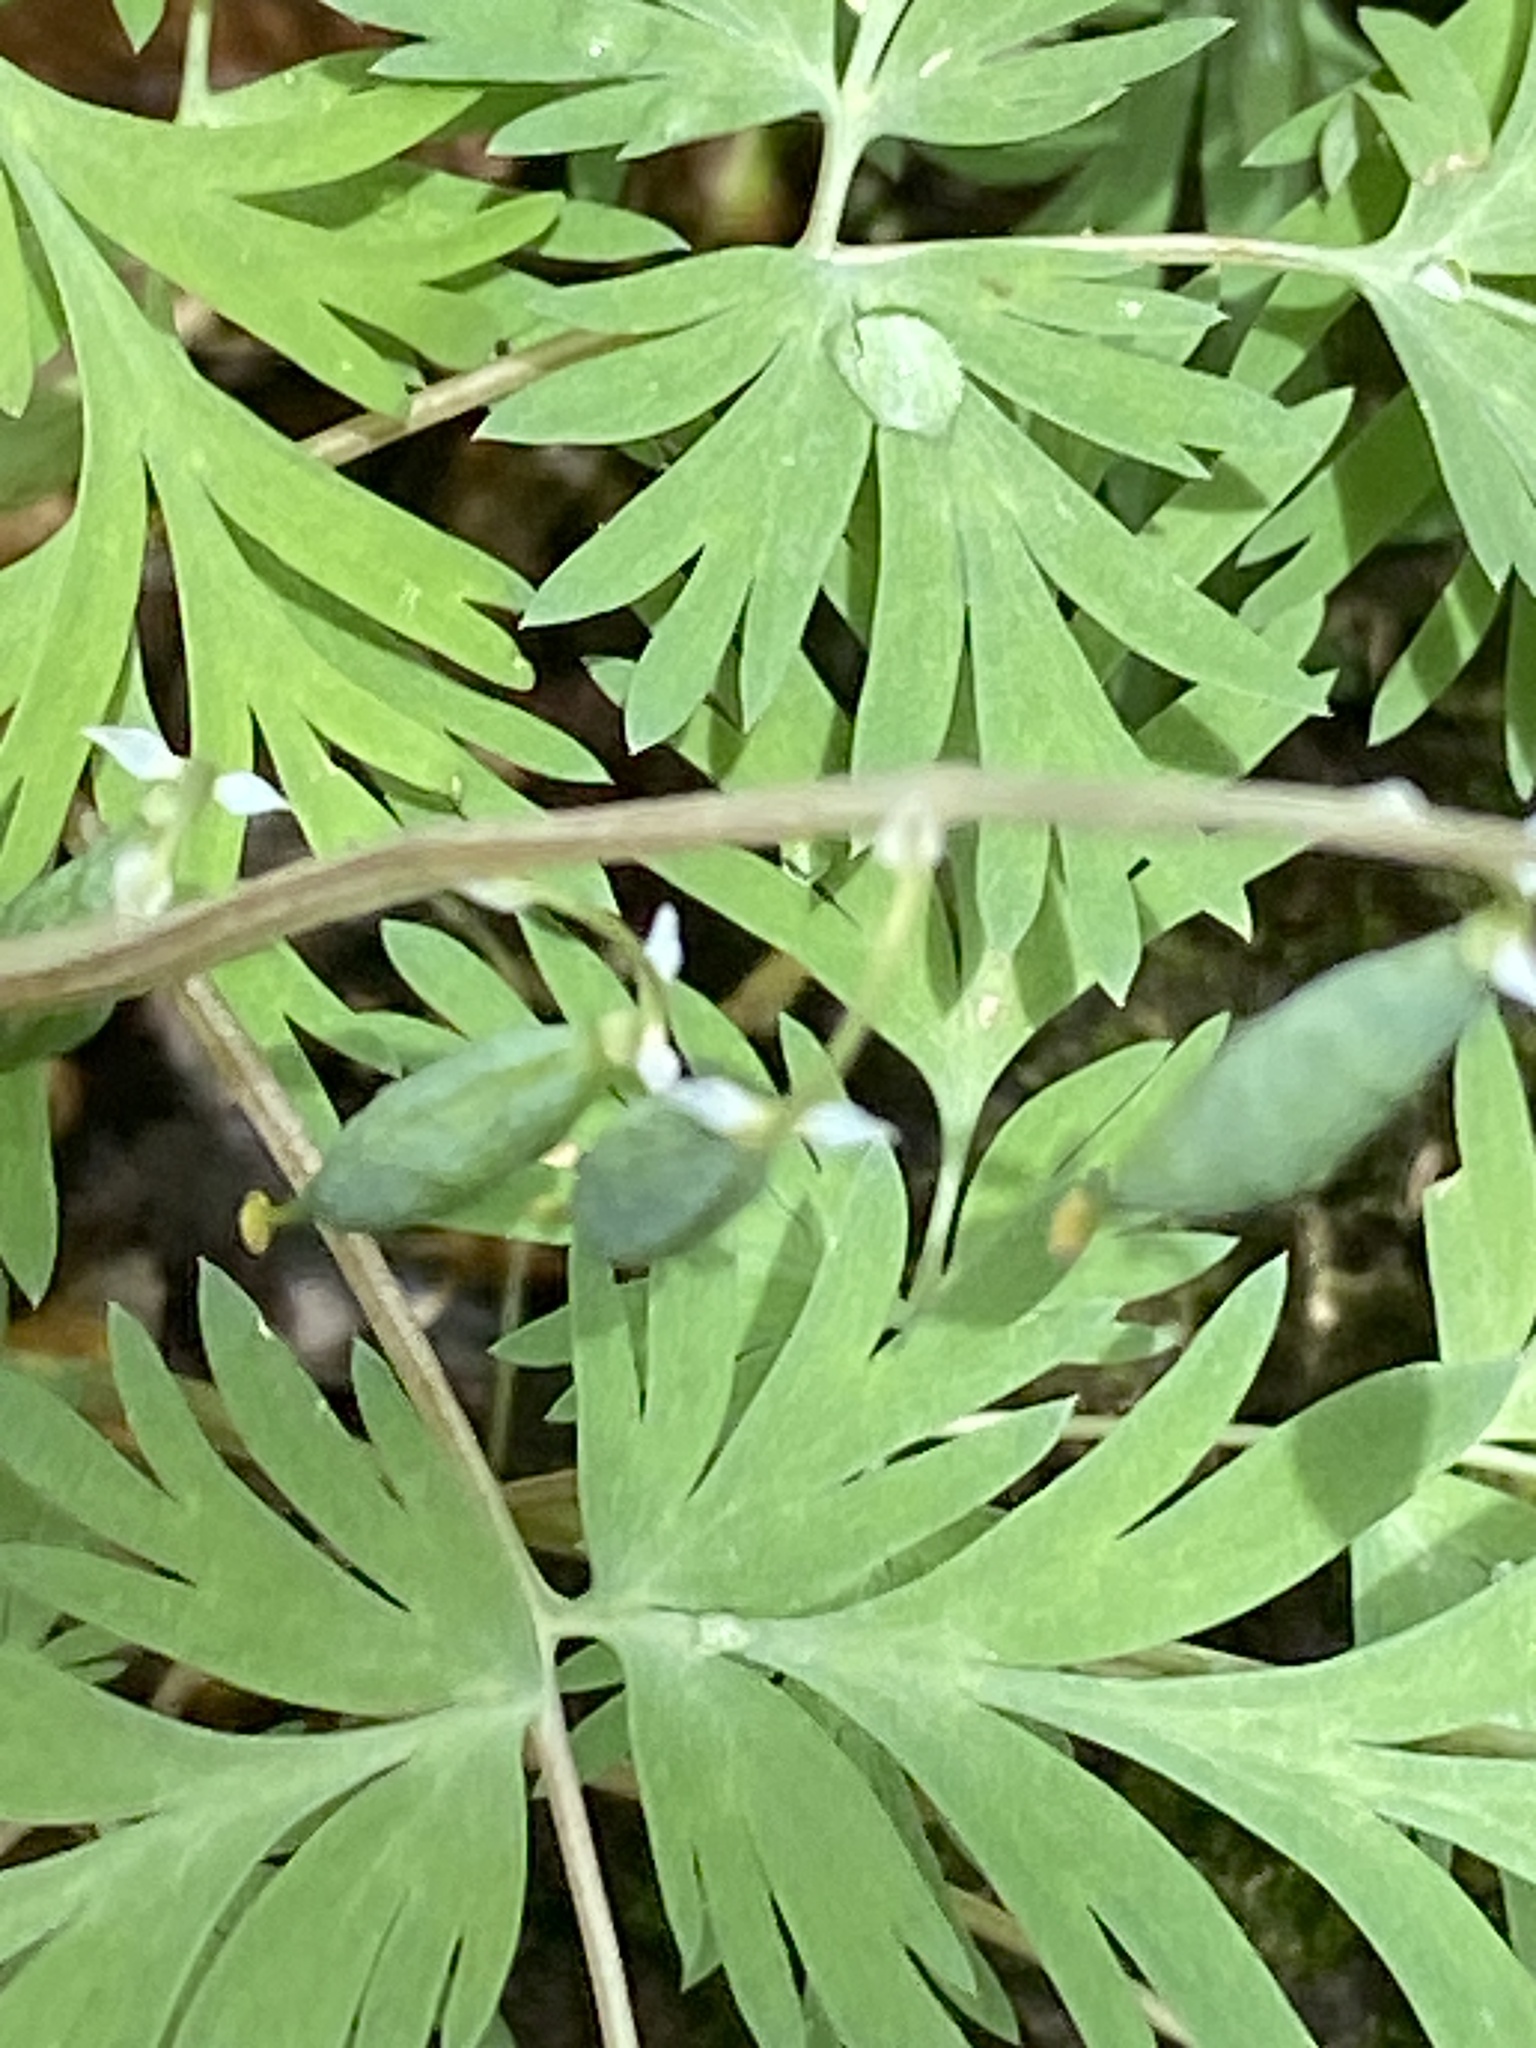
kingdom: Plantae
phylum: Tracheophyta
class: Magnoliopsida
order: Ranunculales
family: Papaveraceae
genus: Dicentra
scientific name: Dicentra cucullaria
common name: Dutchman's breeches
